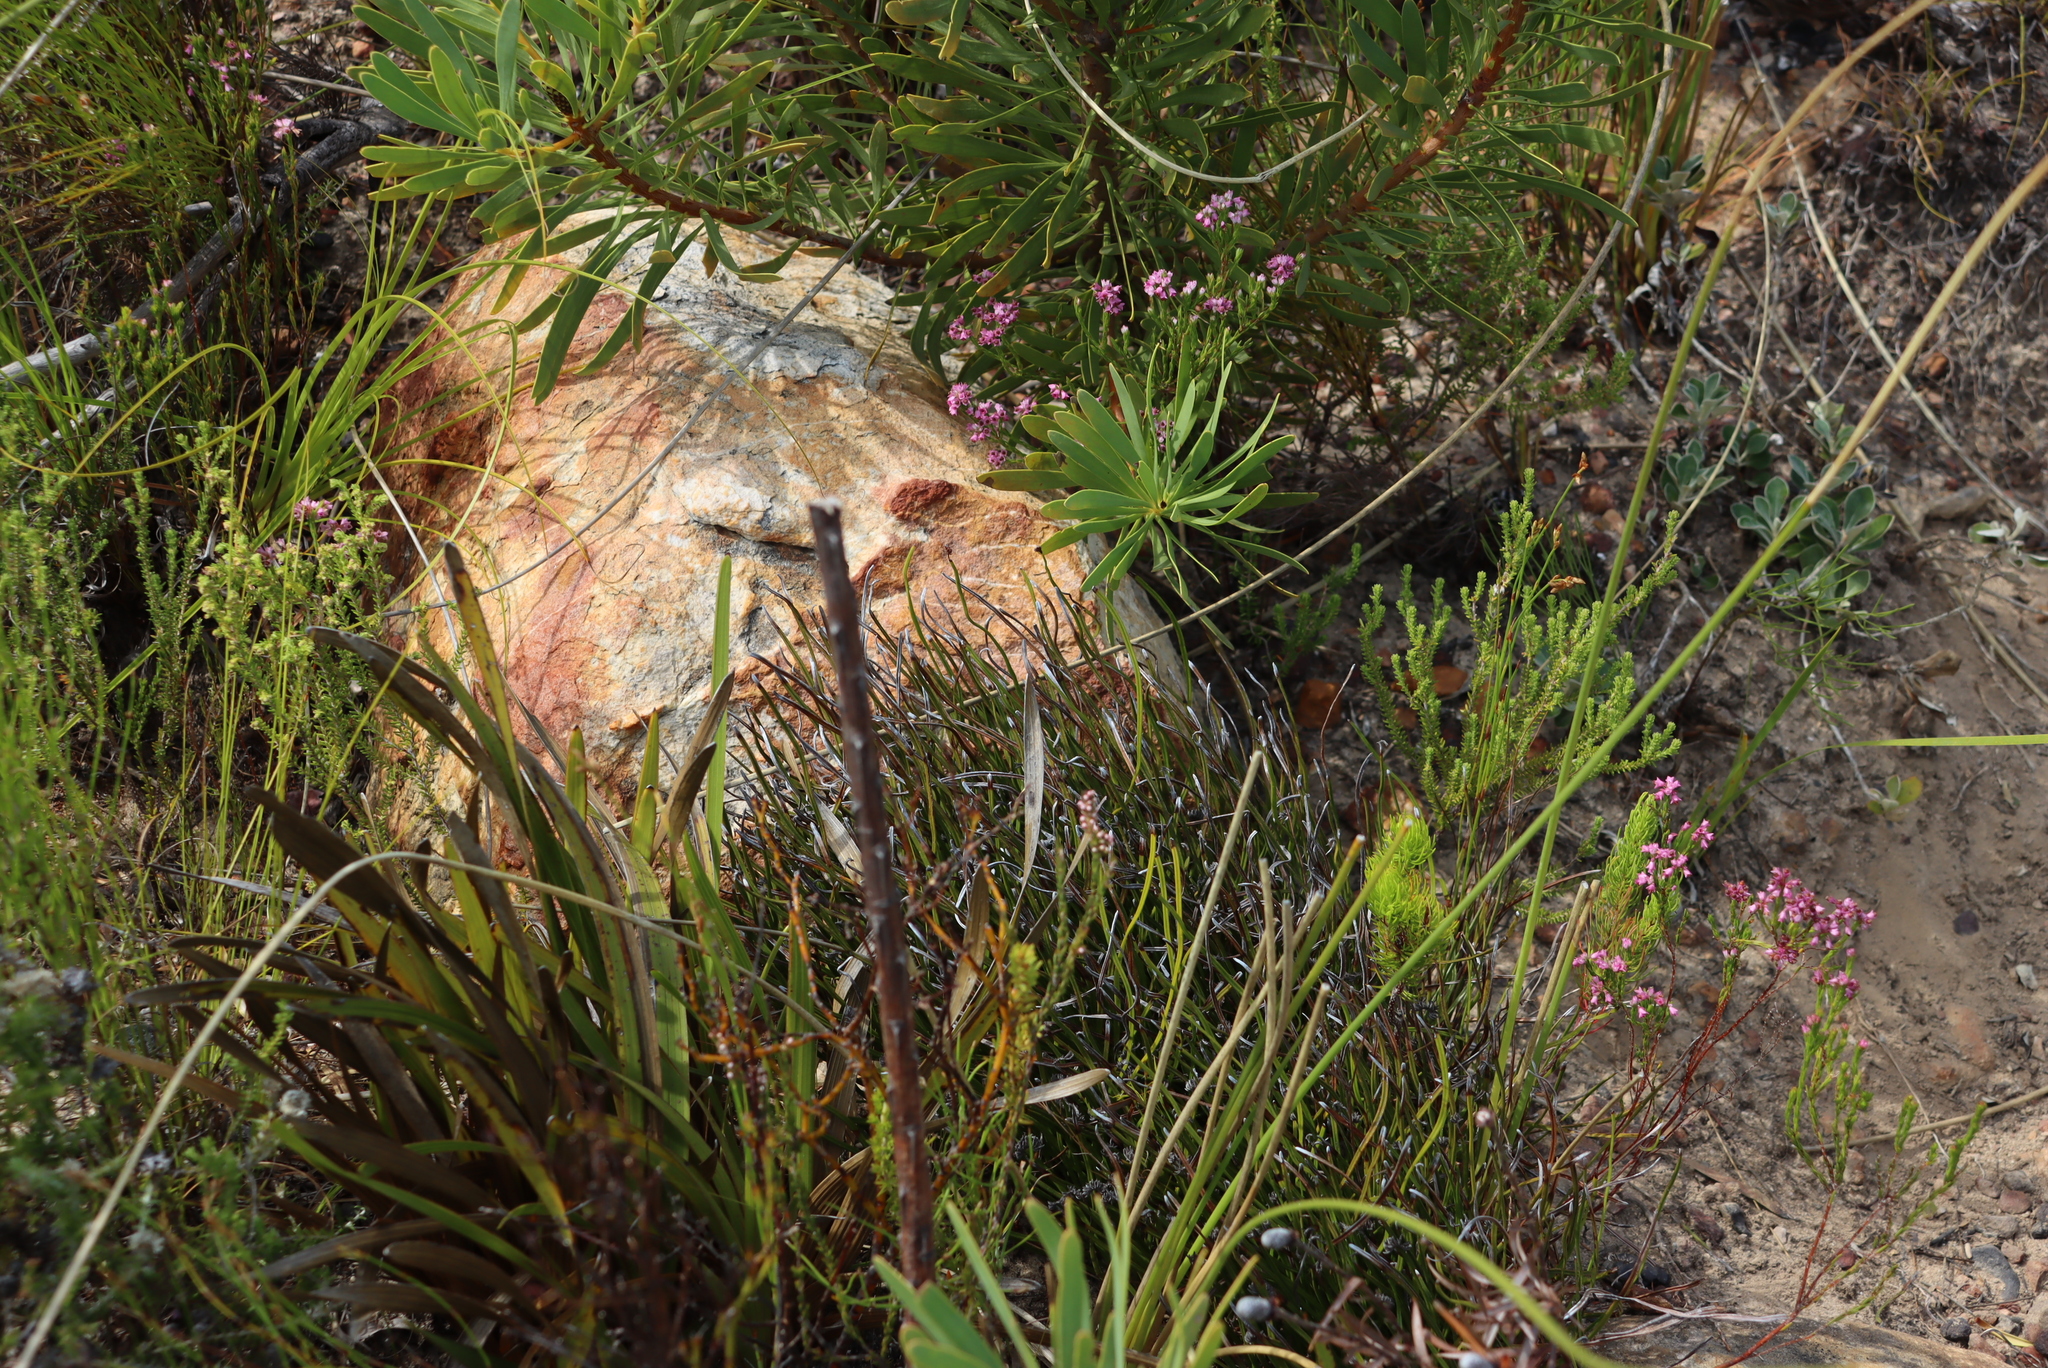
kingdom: Plantae
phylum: Tracheophyta
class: Polypodiopsida
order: Schizaeales
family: Schizaeaceae
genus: Schizaea
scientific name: Schizaea pectinata
